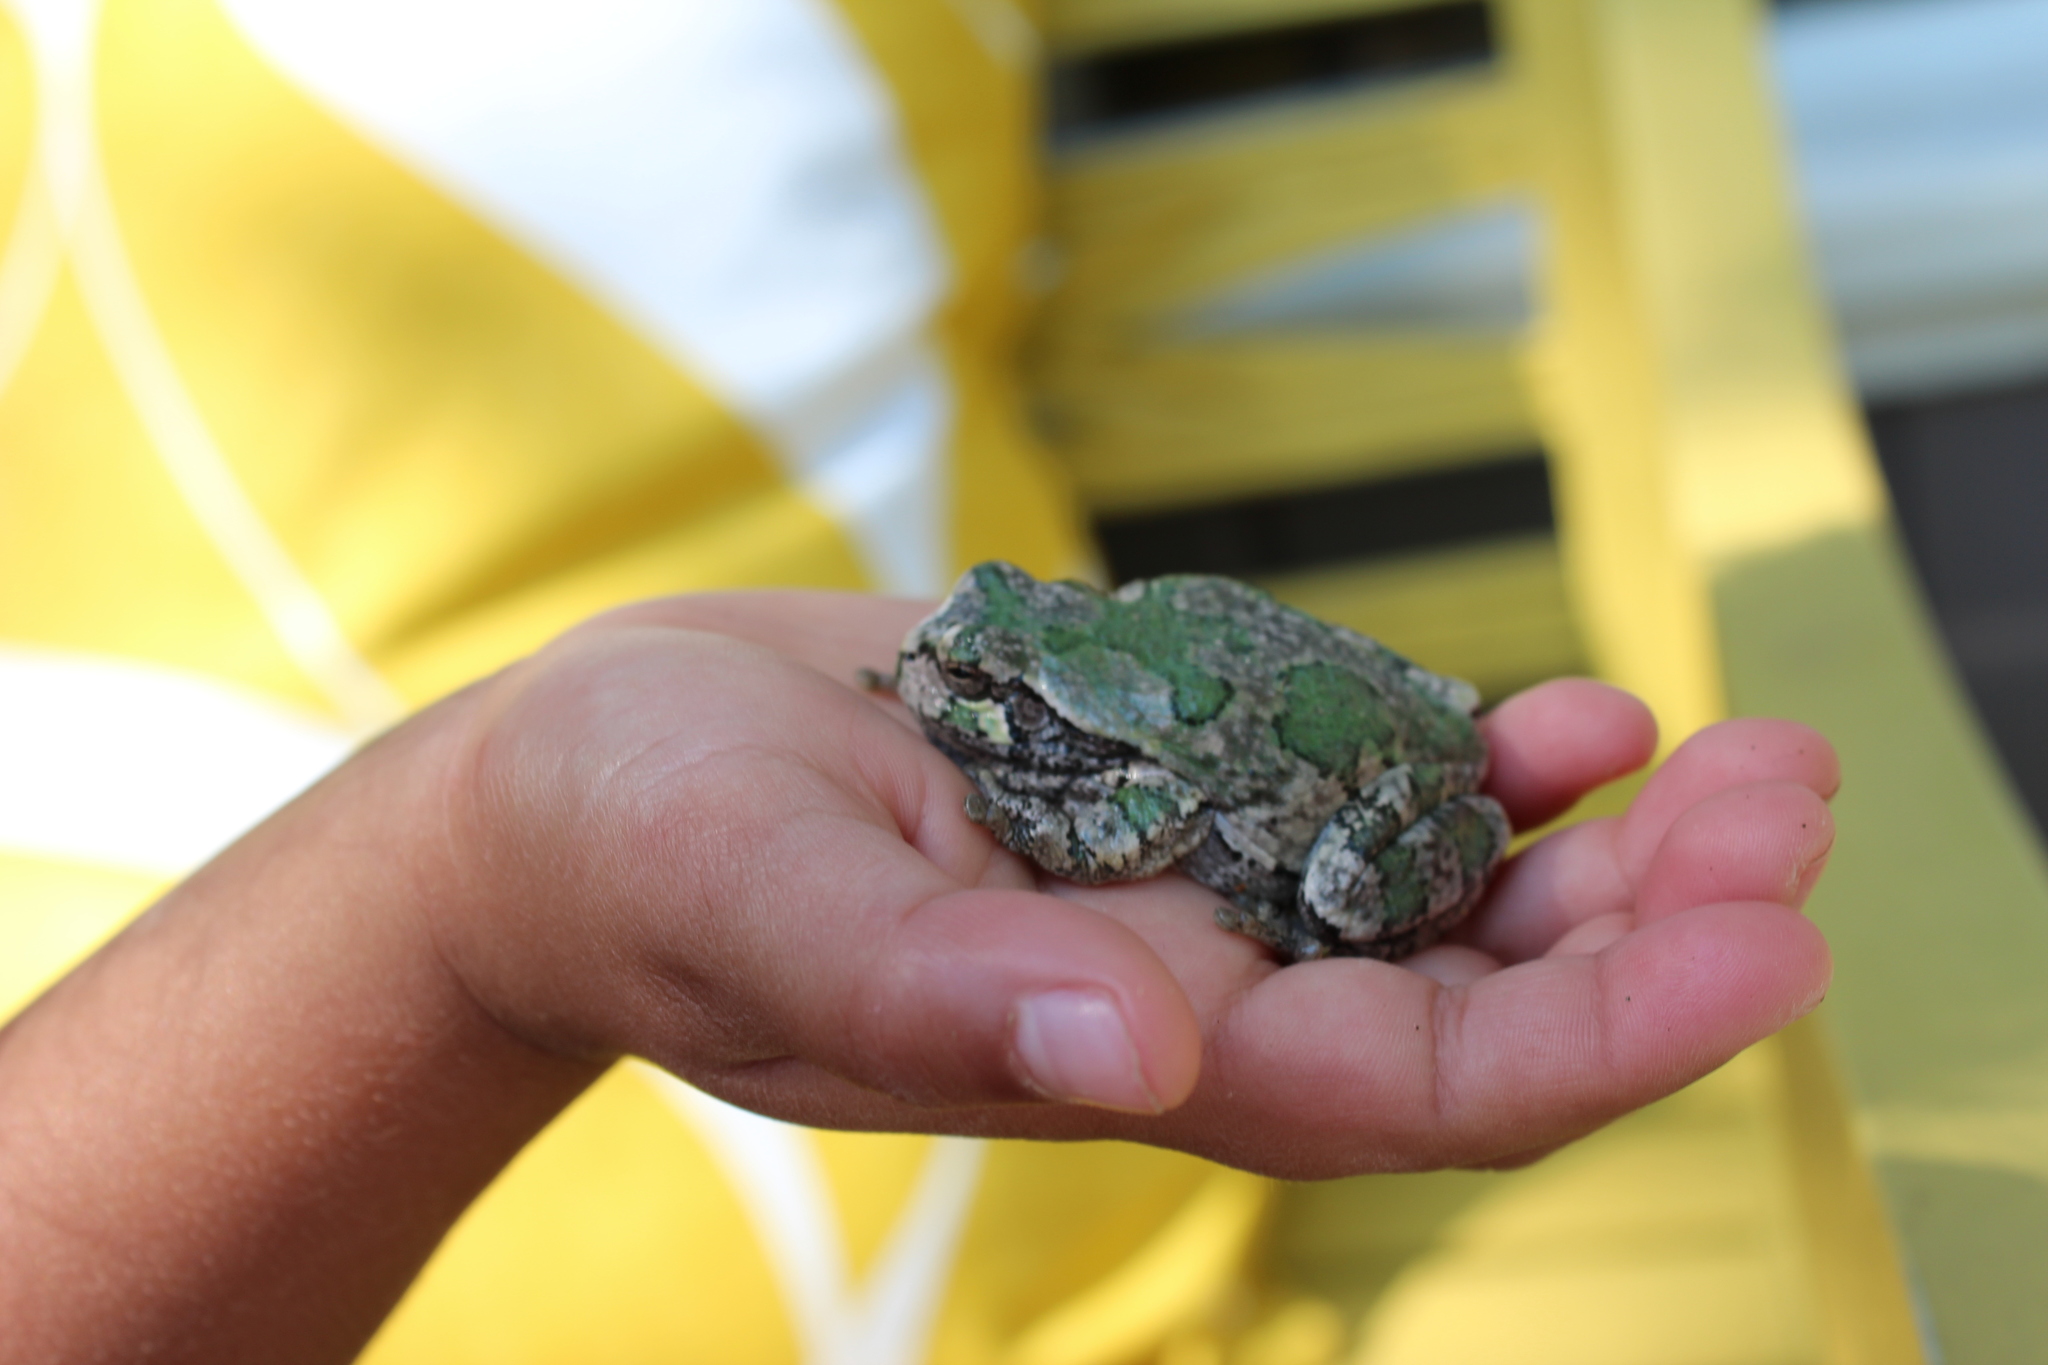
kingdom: Animalia
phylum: Chordata
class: Amphibia
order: Anura
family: Hylidae
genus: Dryophytes
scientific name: Dryophytes versicolor
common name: Gray treefrog
